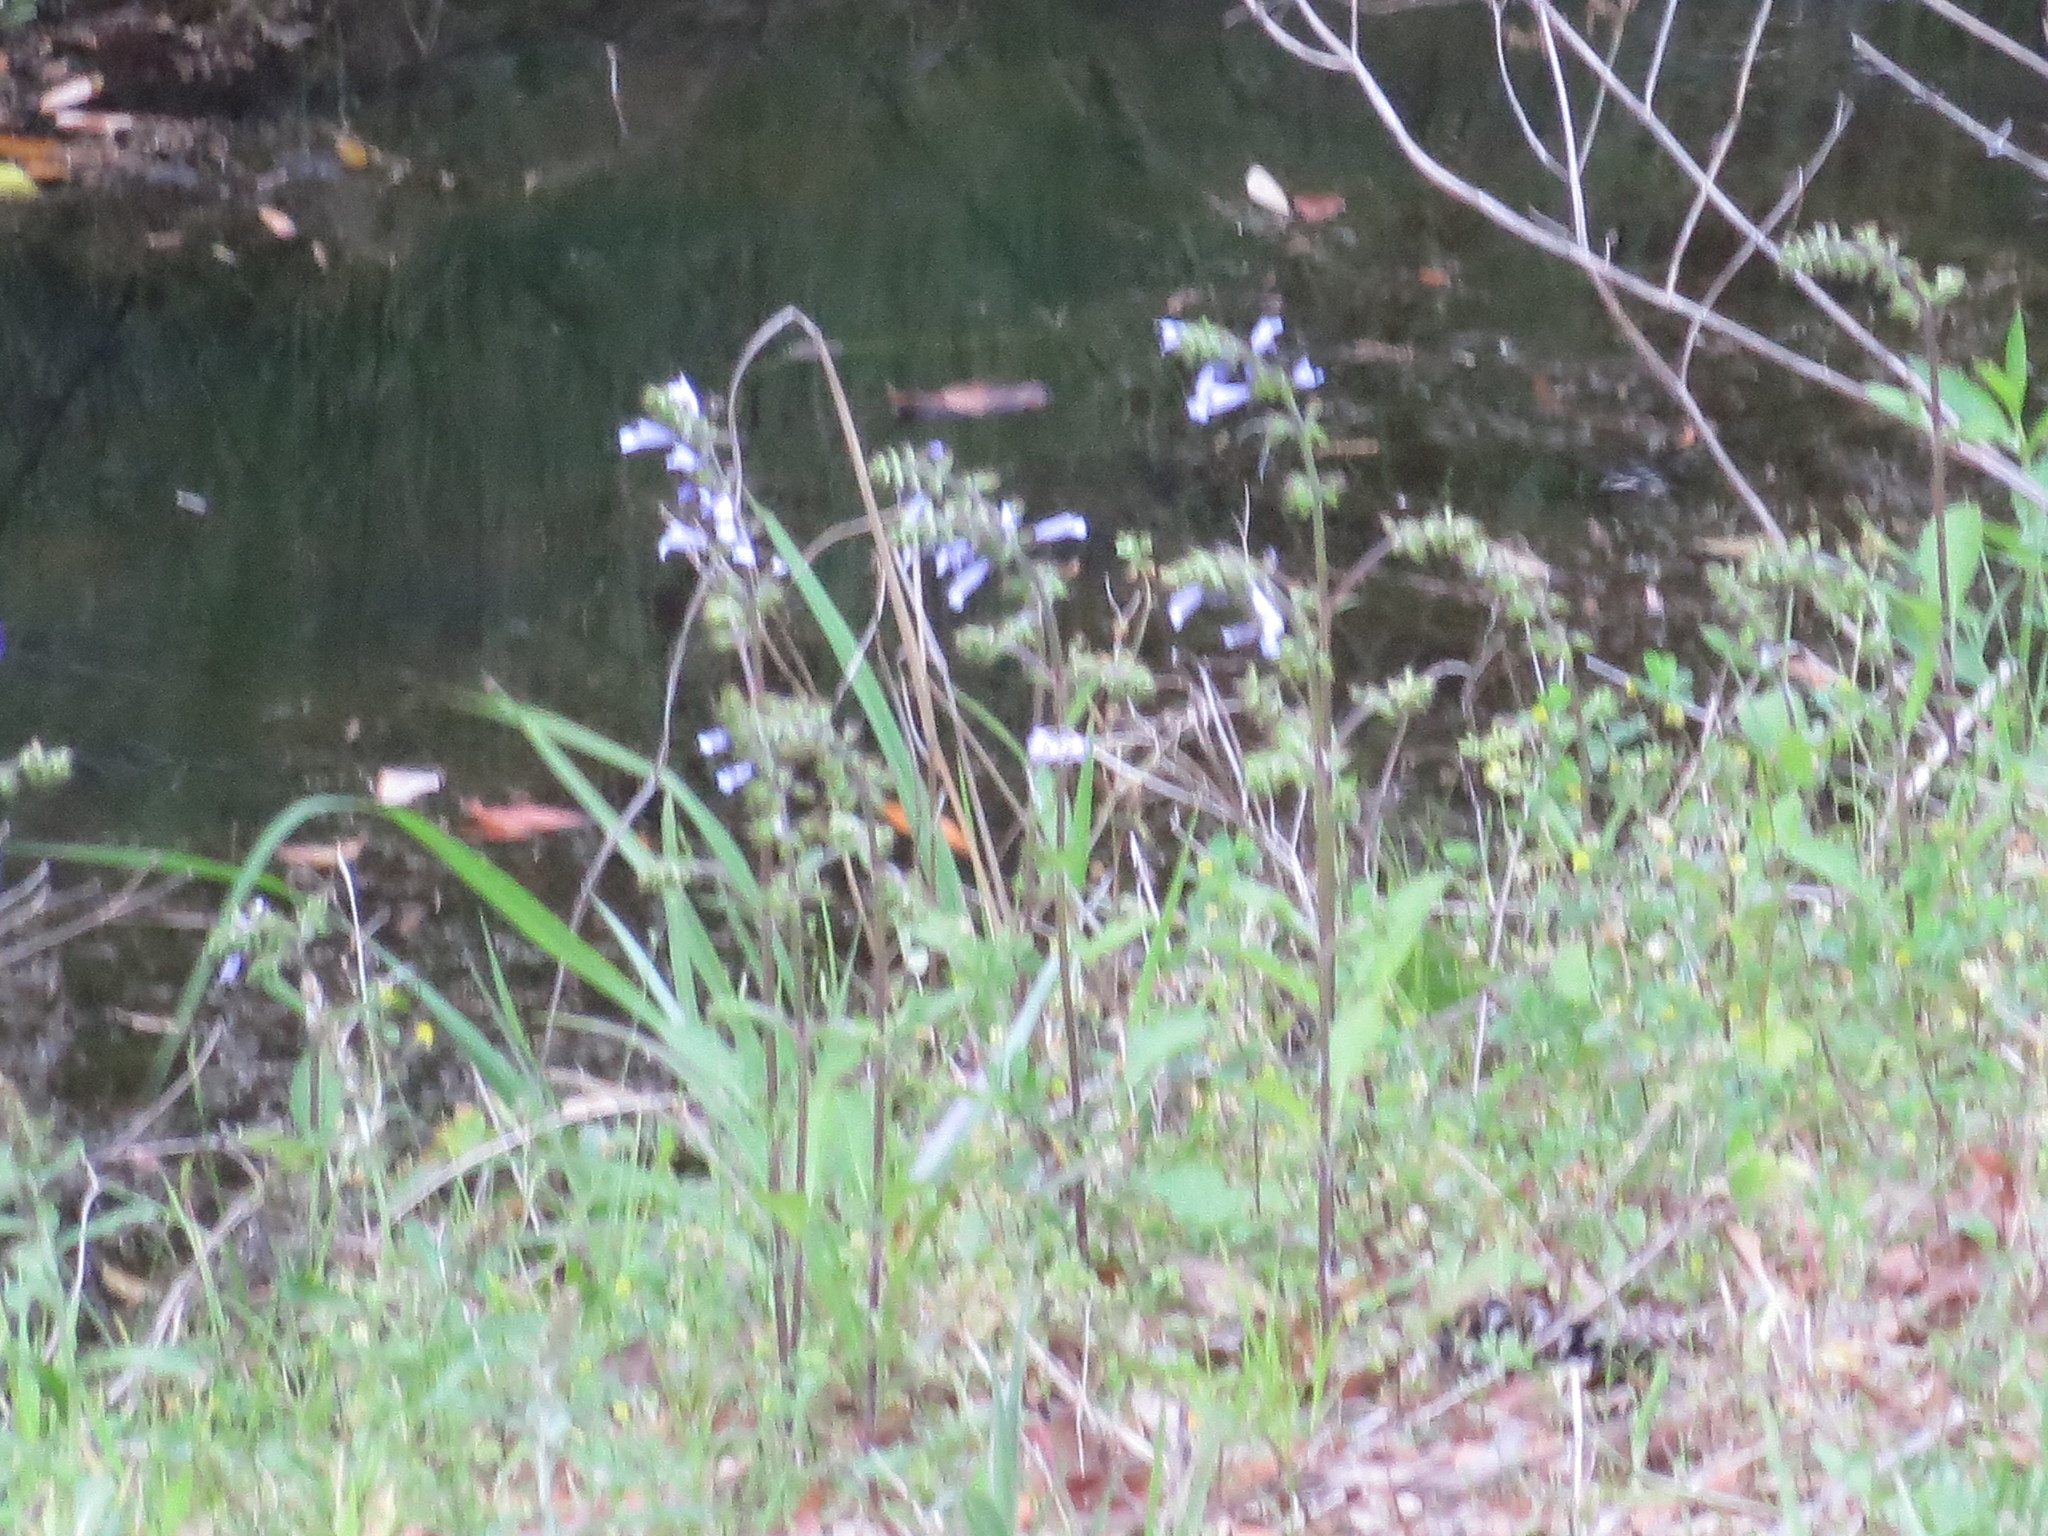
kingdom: Plantae
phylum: Tracheophyta
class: Magnoliopsida
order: Lamiales
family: Lamiaceae
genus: Salvia
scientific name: Salvia lyrata
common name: Cancerweed
